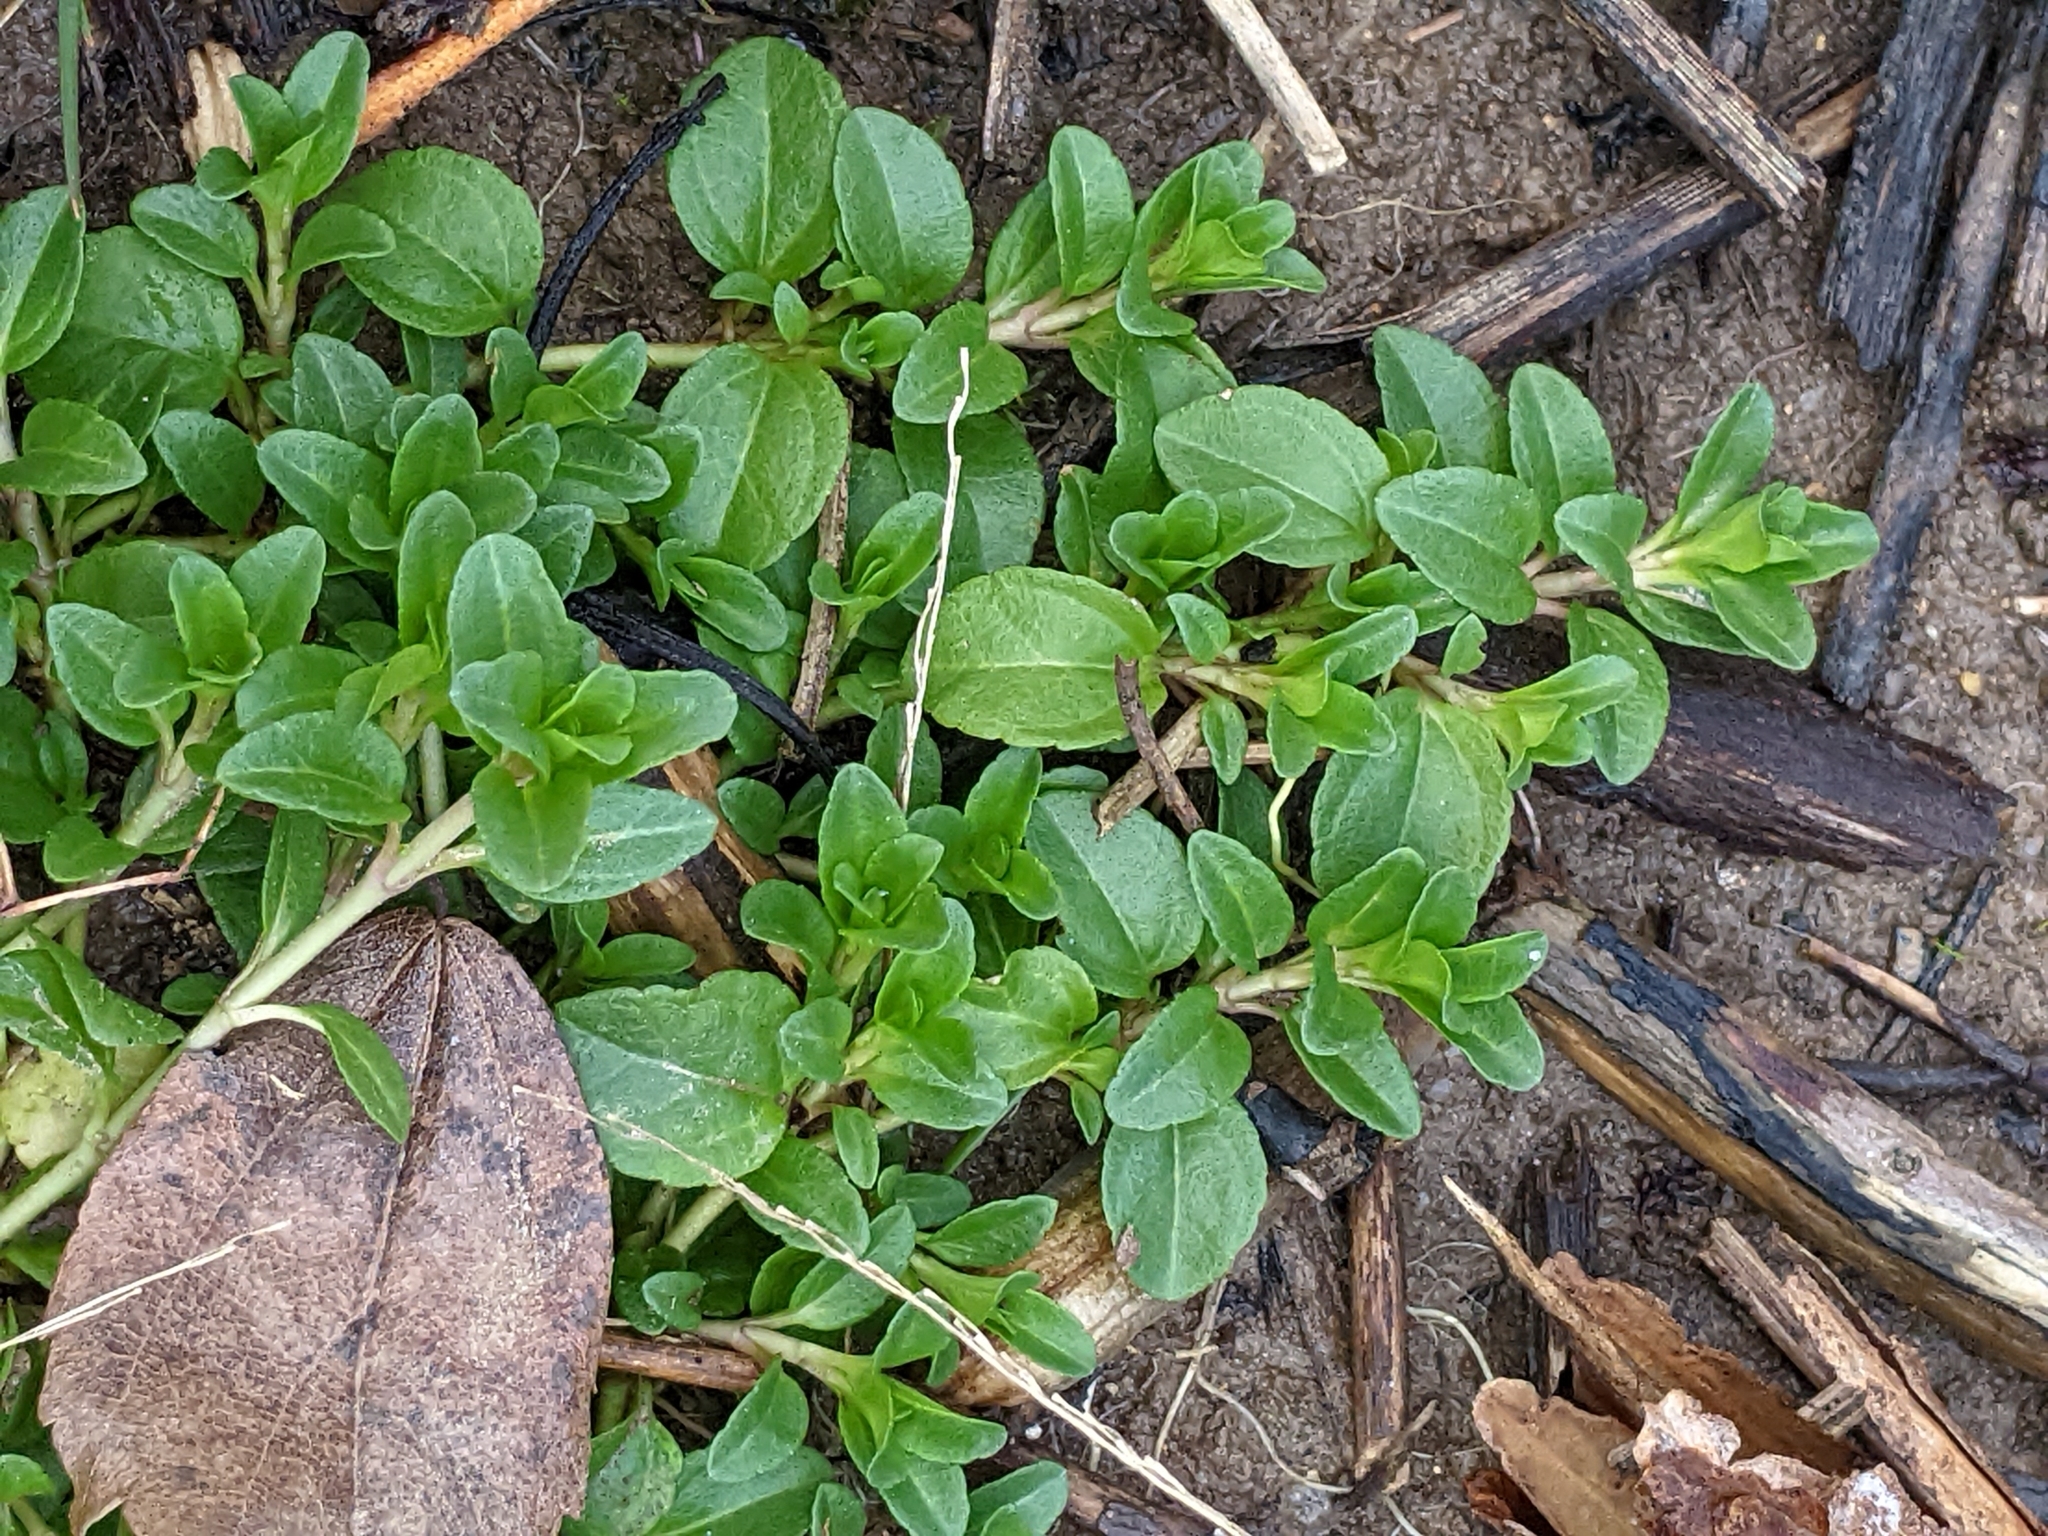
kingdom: Plantae
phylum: Tracheophyta
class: Magnoliopsida
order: Lamiales
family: Plantaginaceae
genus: Veronica
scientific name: Veronica serpyllifolia
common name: Thyme-leaved speedwell
